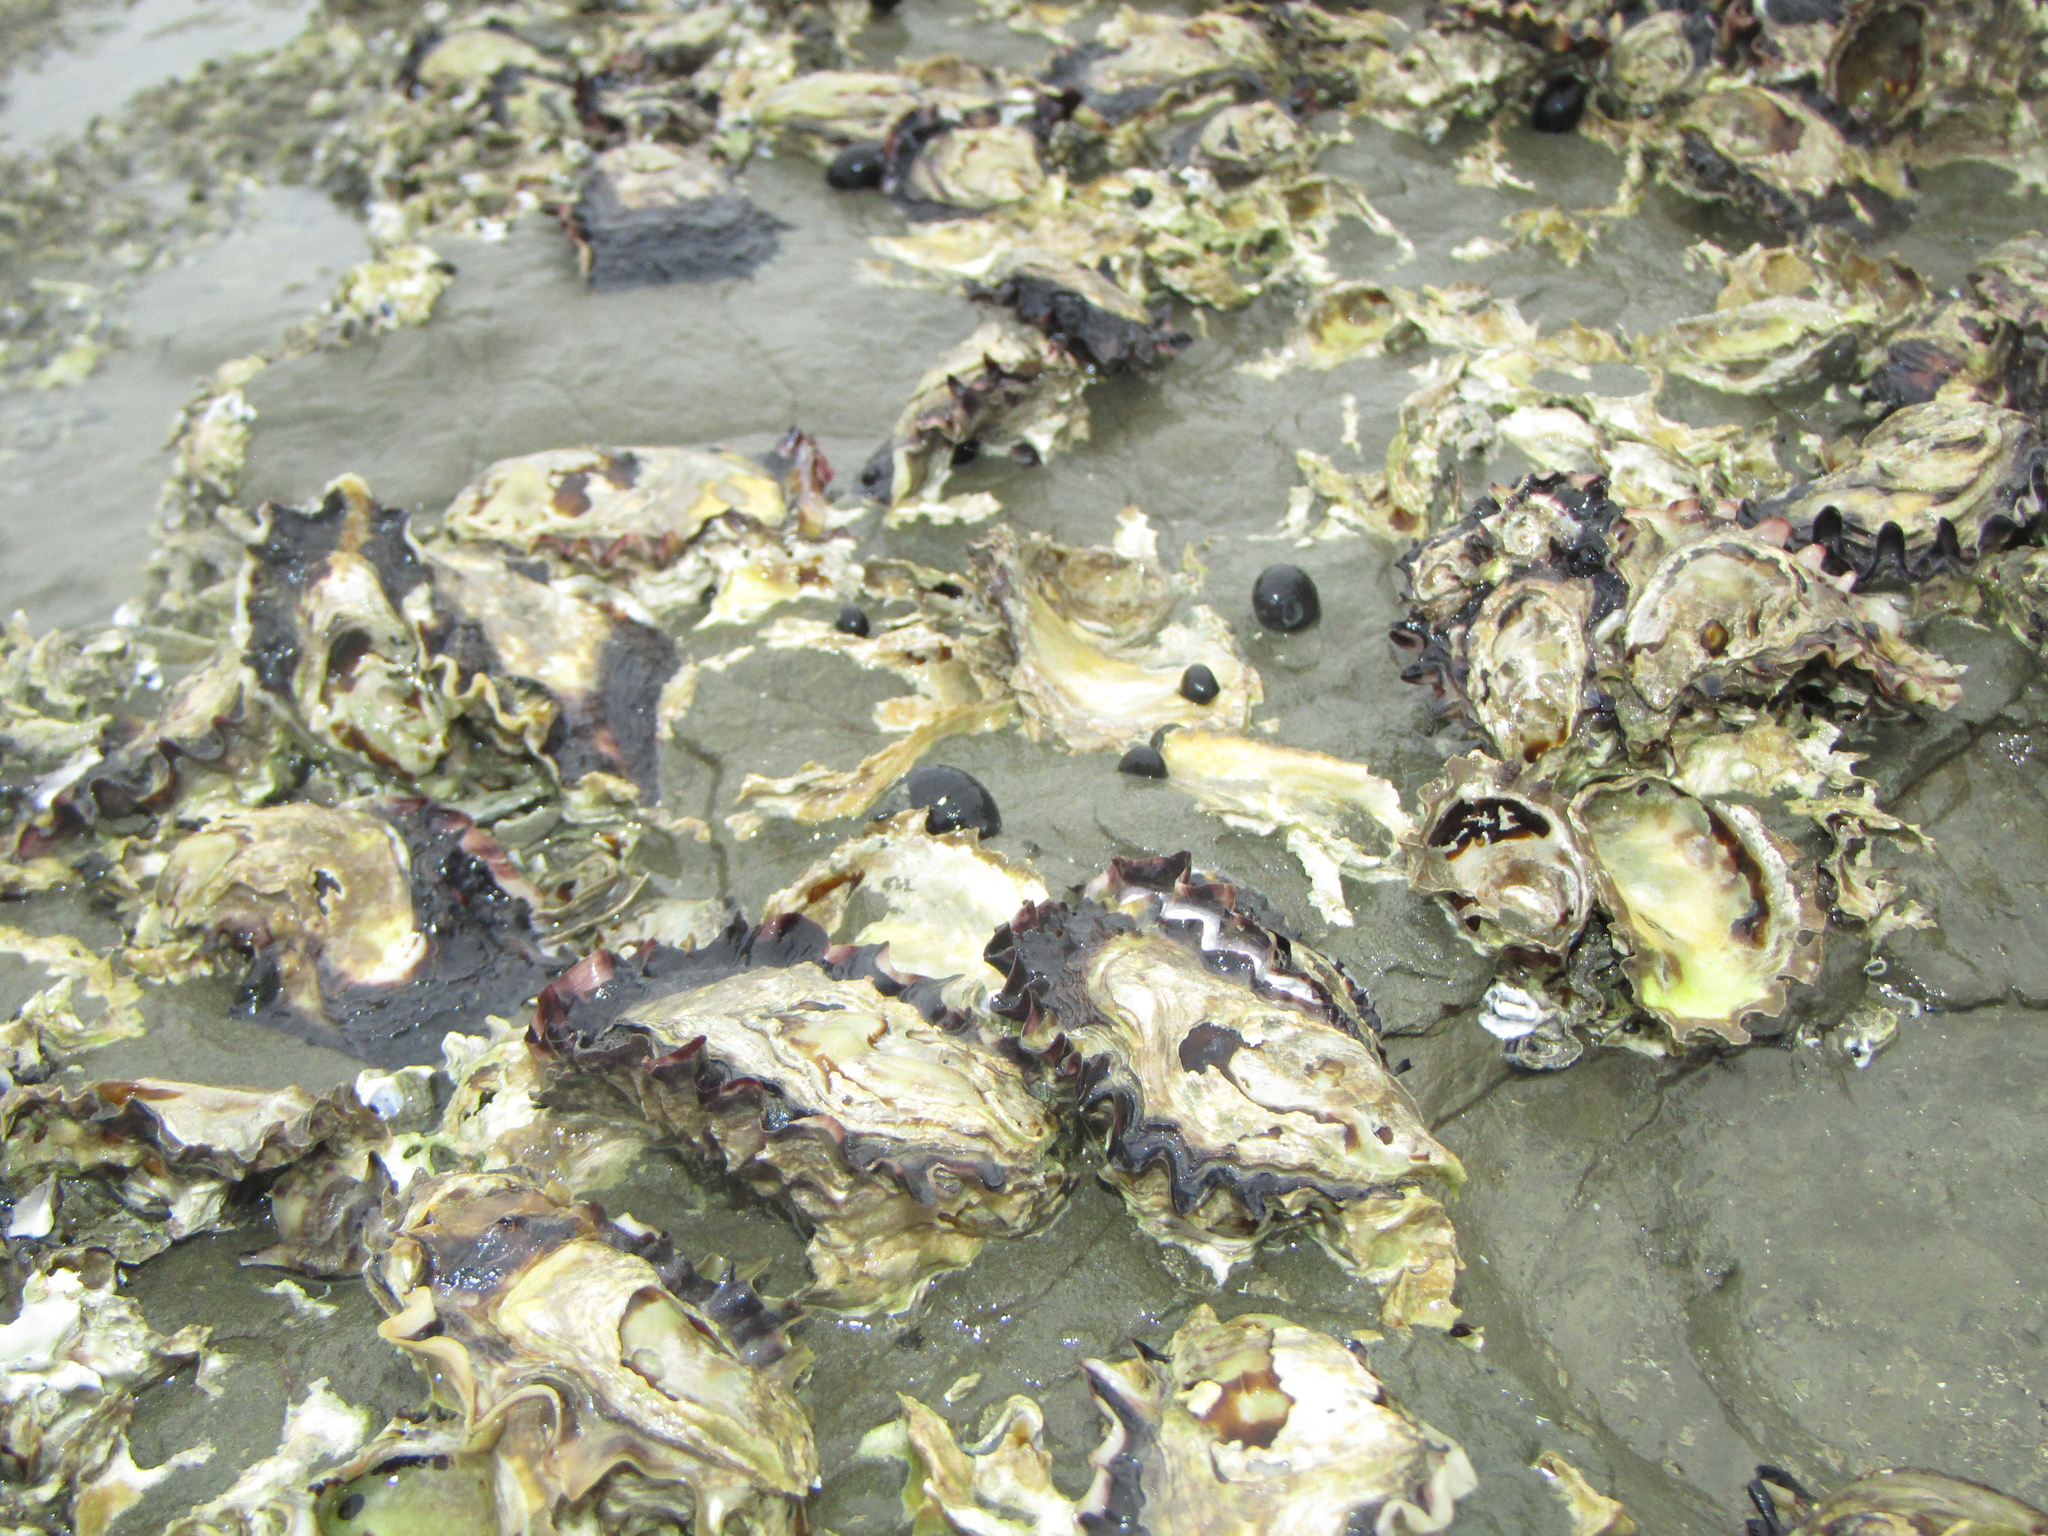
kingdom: Animalia
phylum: Mollusca
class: Bivalvia
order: Ostreida
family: Ostreidae
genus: Saccostrea
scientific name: Saccostrea glomerata
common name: Sydney cupped oyster
